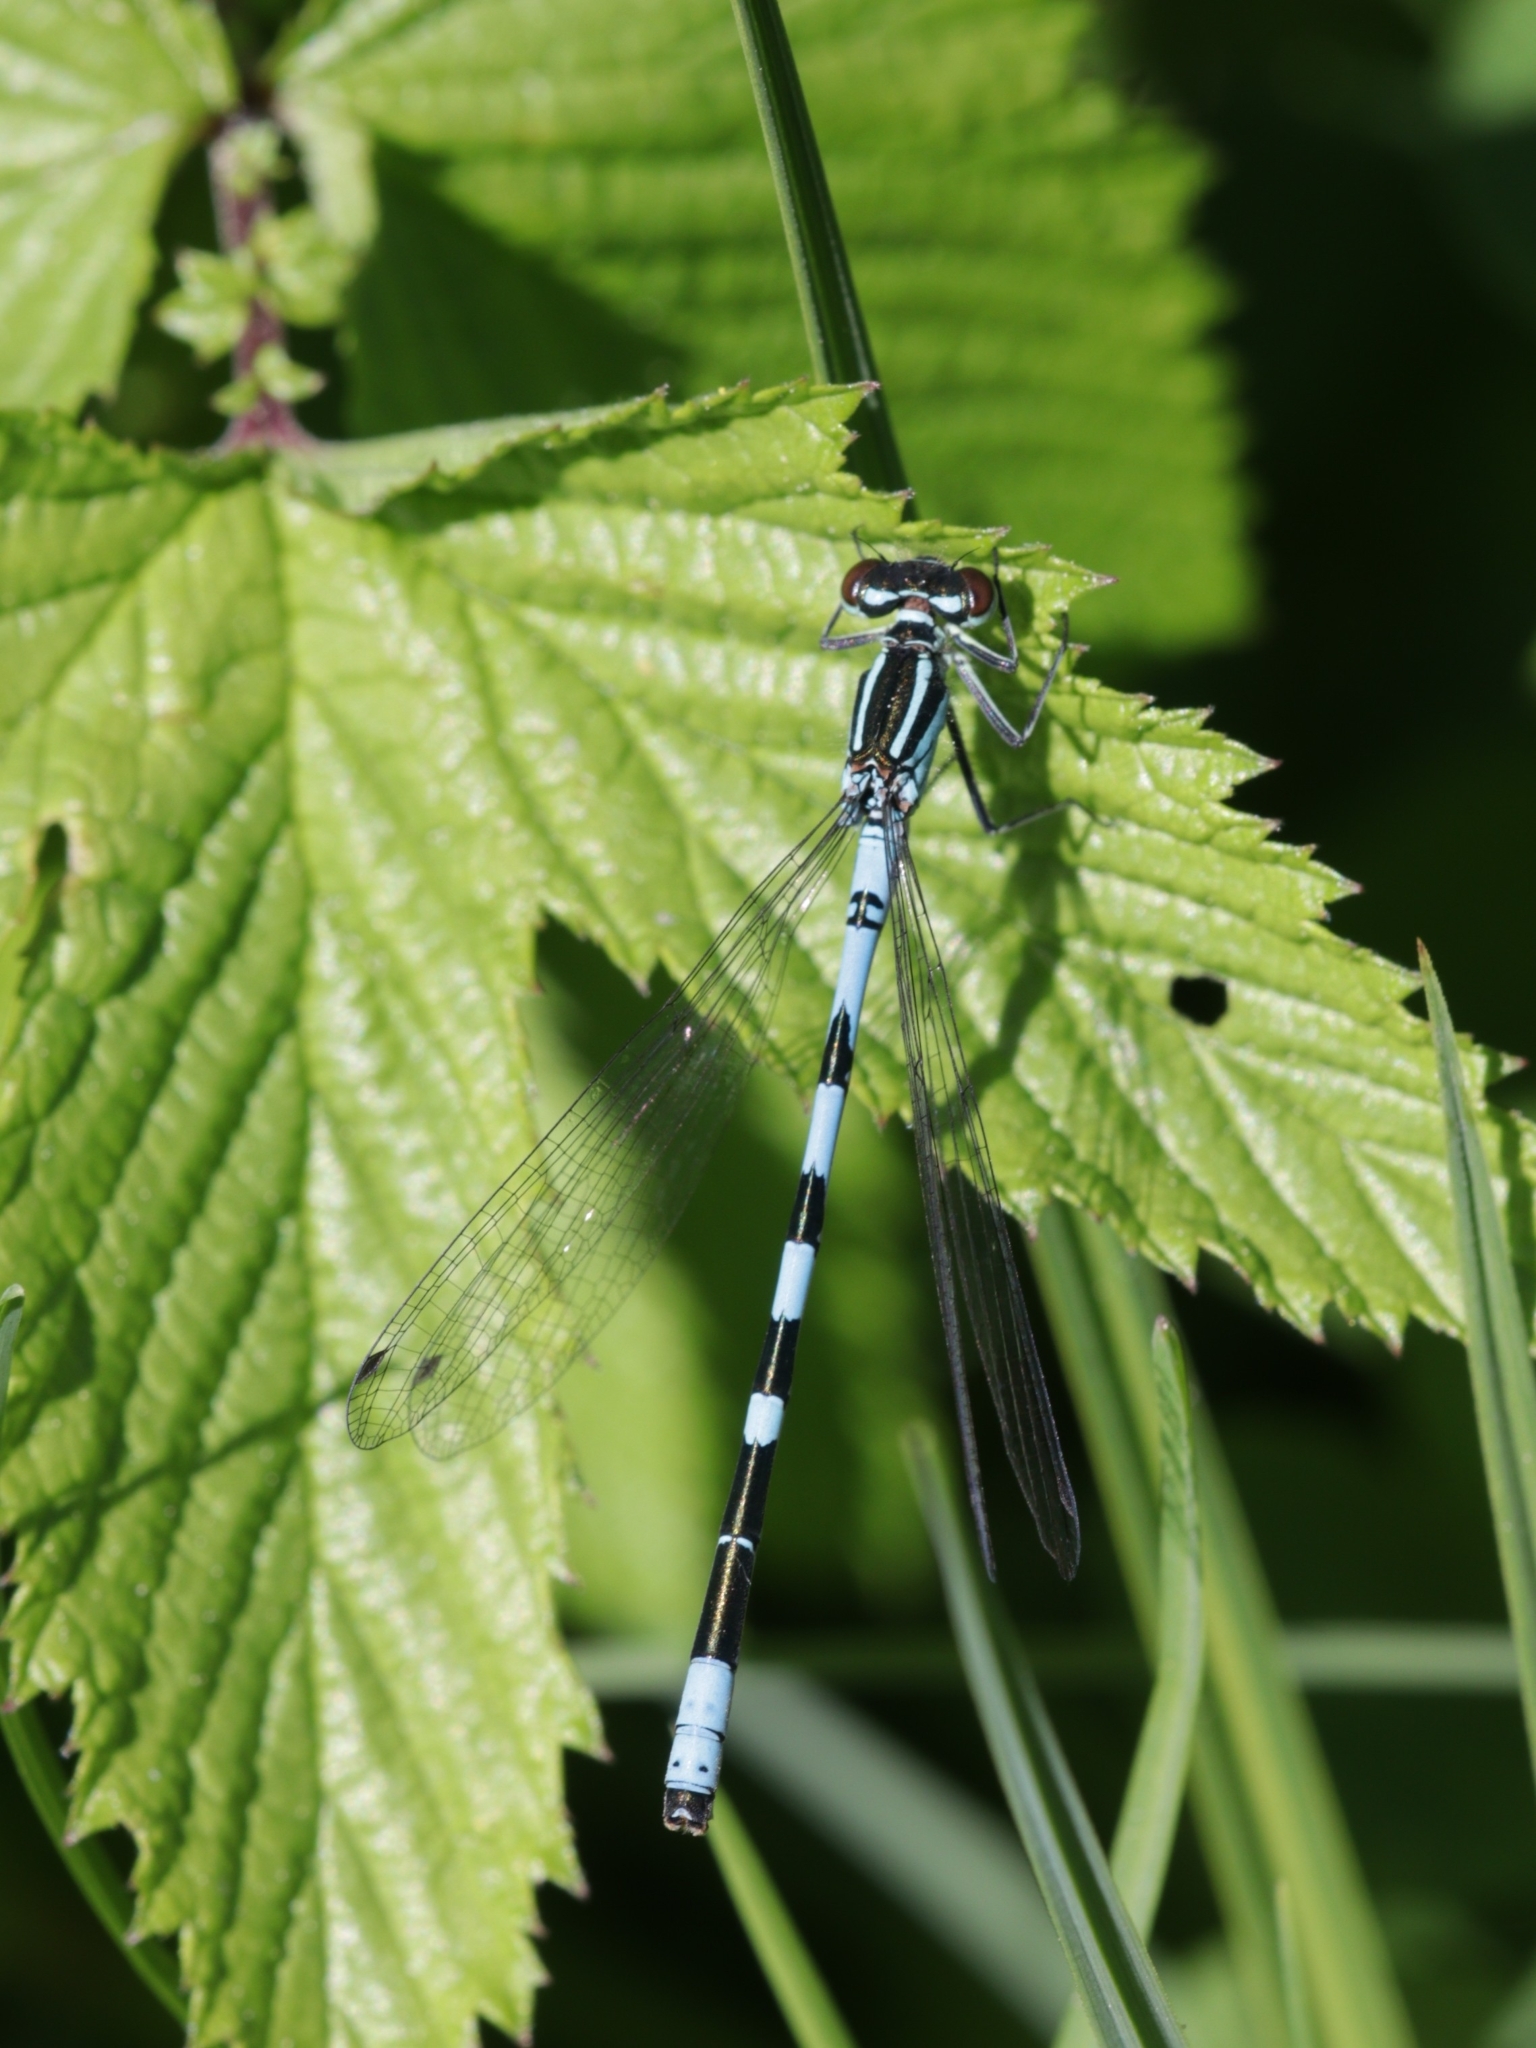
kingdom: Animalia
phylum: Arthropoda
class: Insecta
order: Odonata
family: Coenagrionidae
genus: Coenagrion
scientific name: Coenagrion hastulatum
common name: Spearhead bluet
